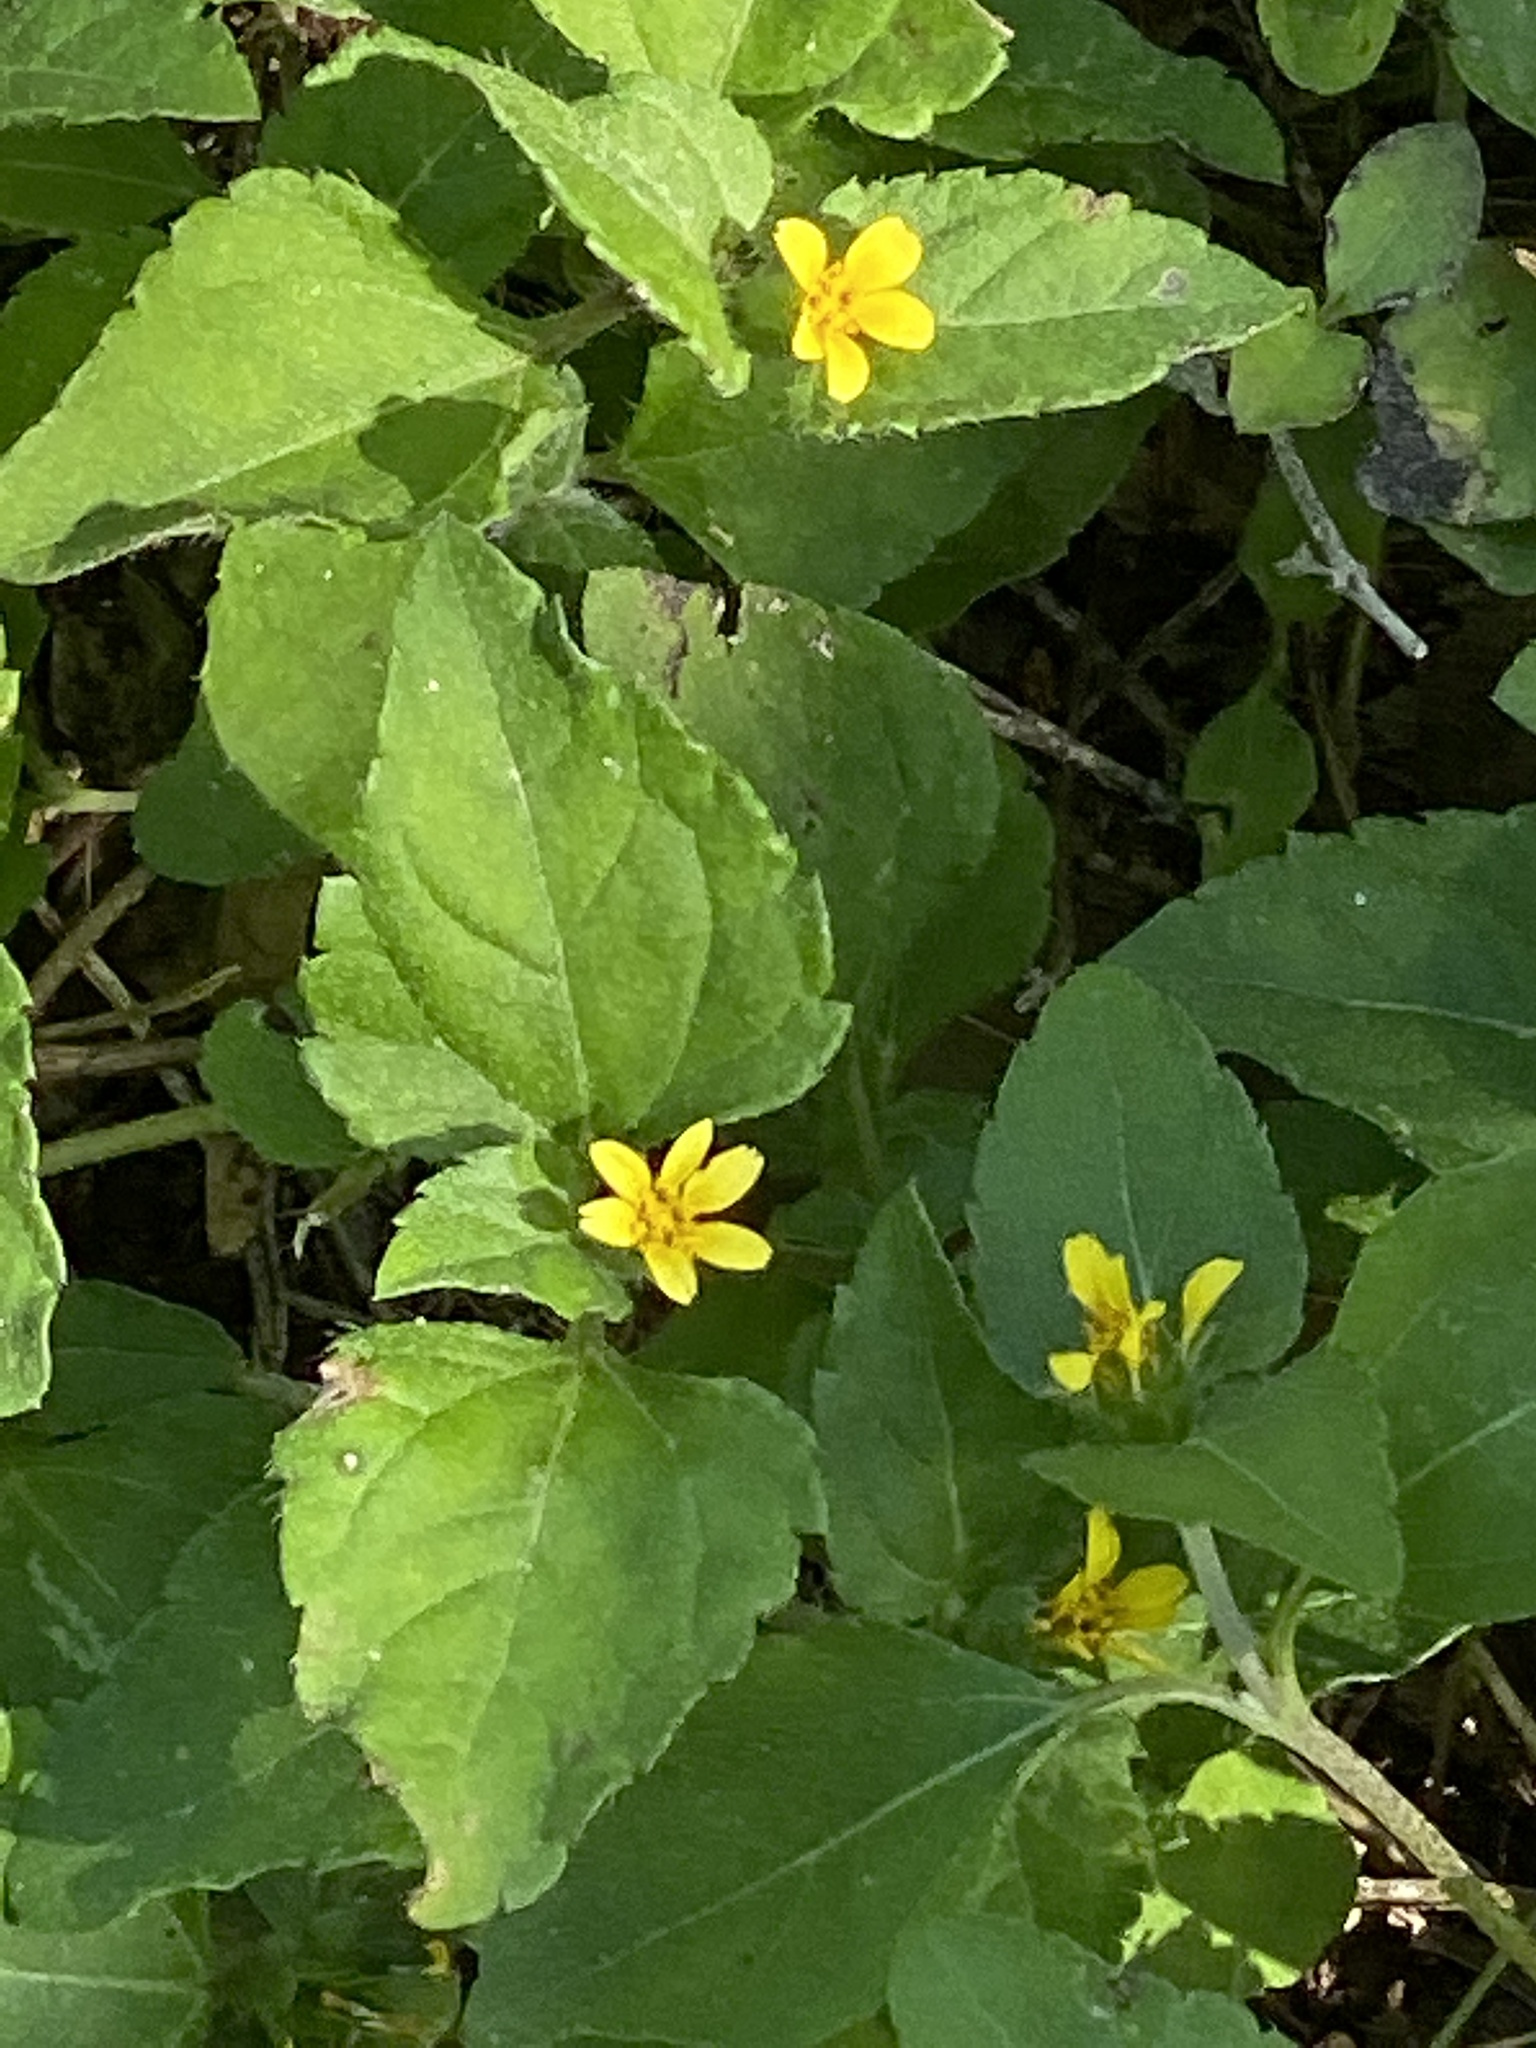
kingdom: Plantae
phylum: Tracheophyta
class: Magnoliopsida
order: Asterales
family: Asteraceae
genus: Calyptocarpus
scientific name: Calyptocarpus vialis
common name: Straggler daisy
